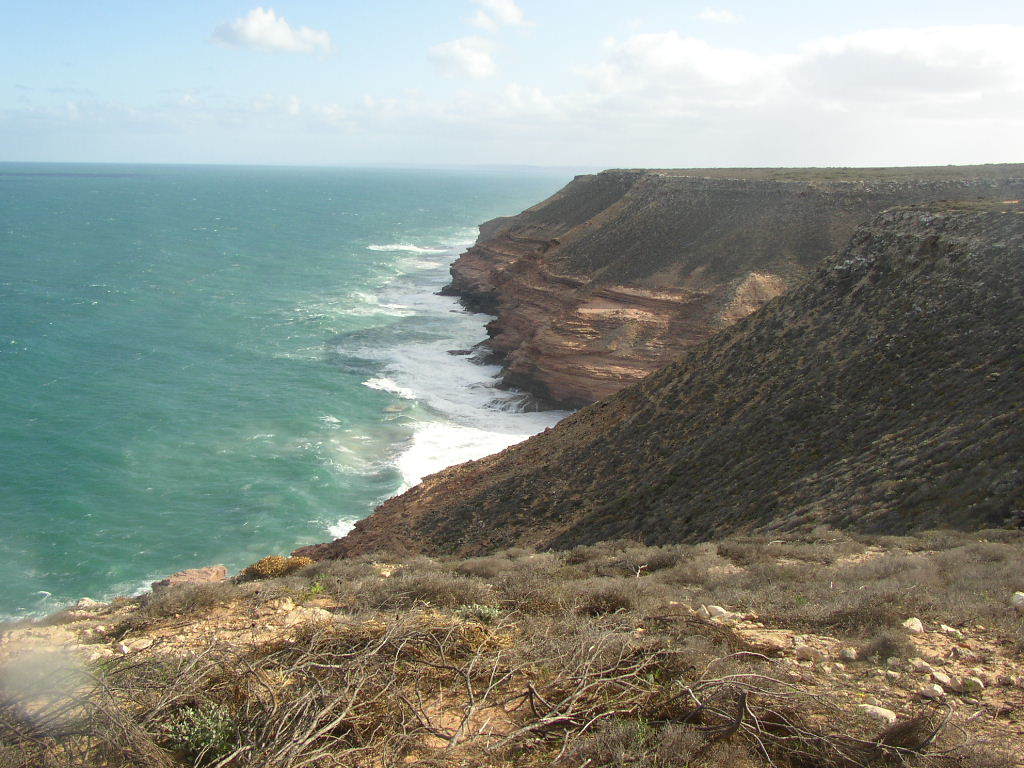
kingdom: Plantae
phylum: Tracheophyta
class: Magnoliopsida
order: Lamiales
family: Lamiaceae
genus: Westringia
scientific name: Westringia dampieri
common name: Shore westringia
